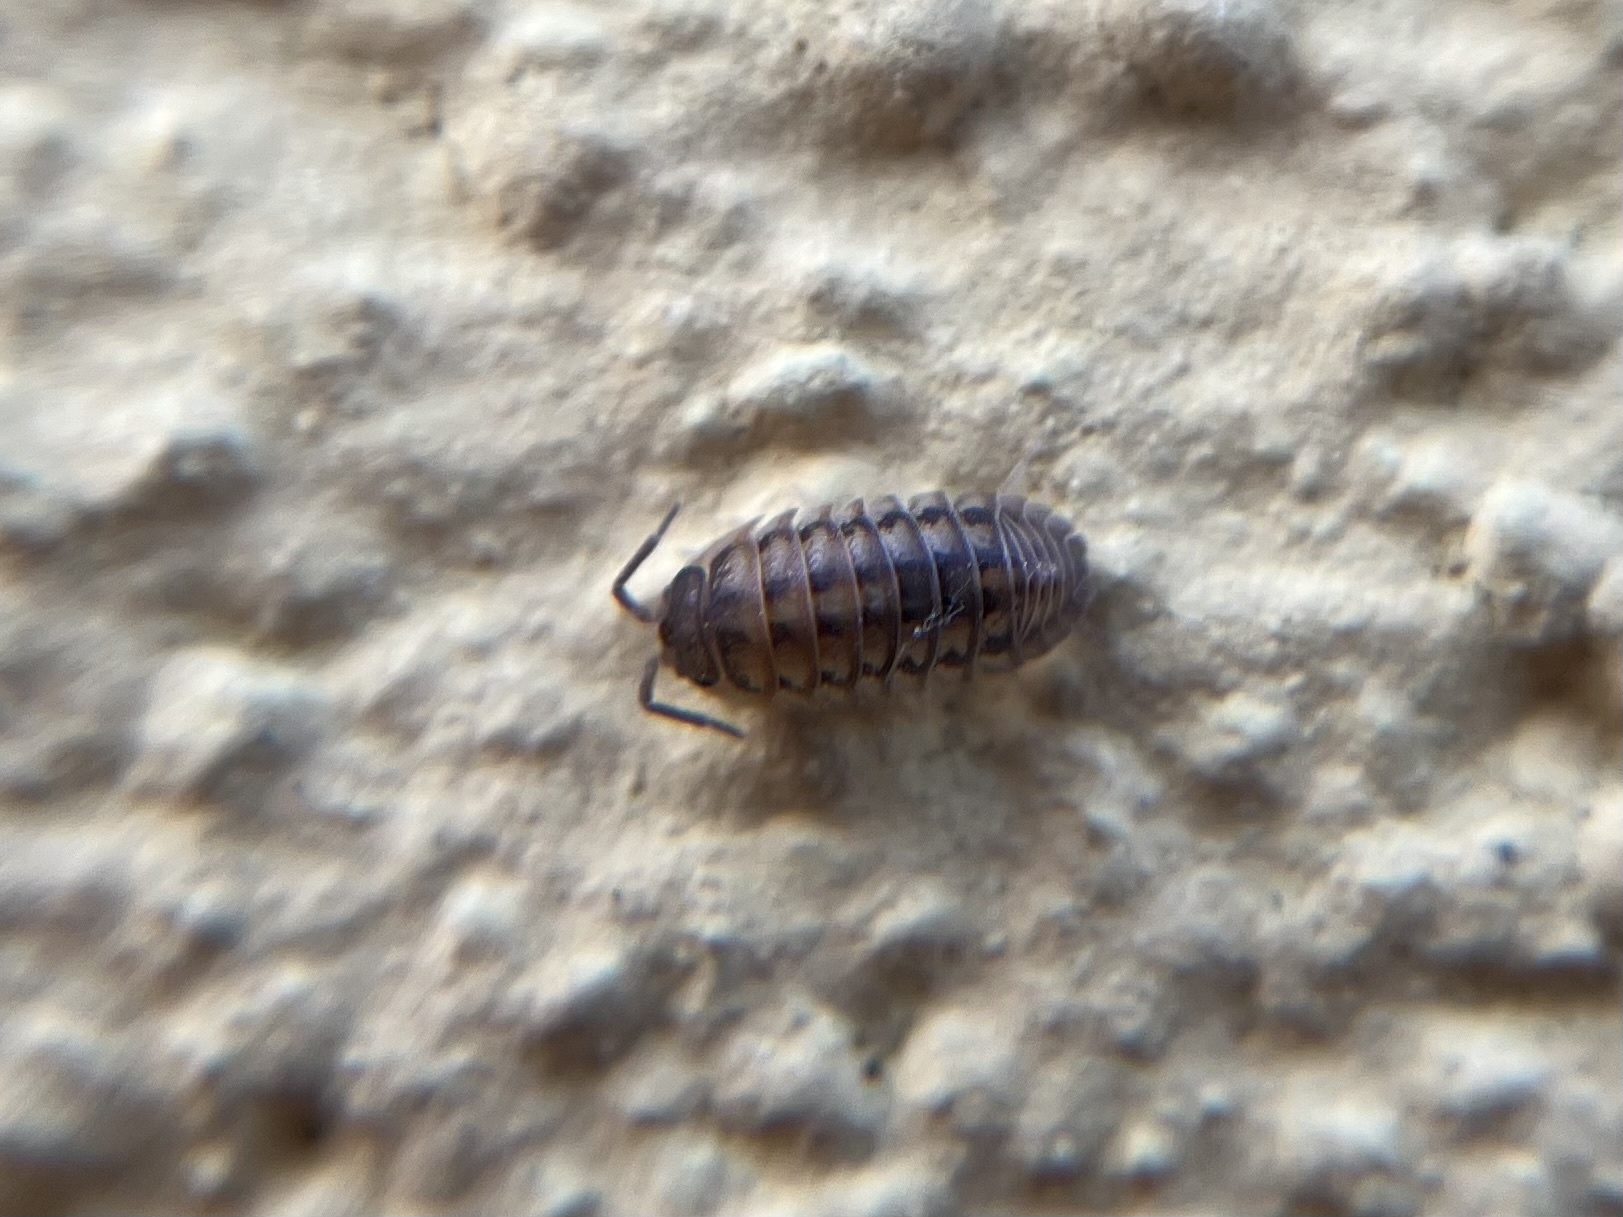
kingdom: Animalia
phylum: Arthropoda
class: Malacostraca
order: Isopoda
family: Armadillidiidae
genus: Armadillidium
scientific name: Armadillidium nasatum
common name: Isopod
